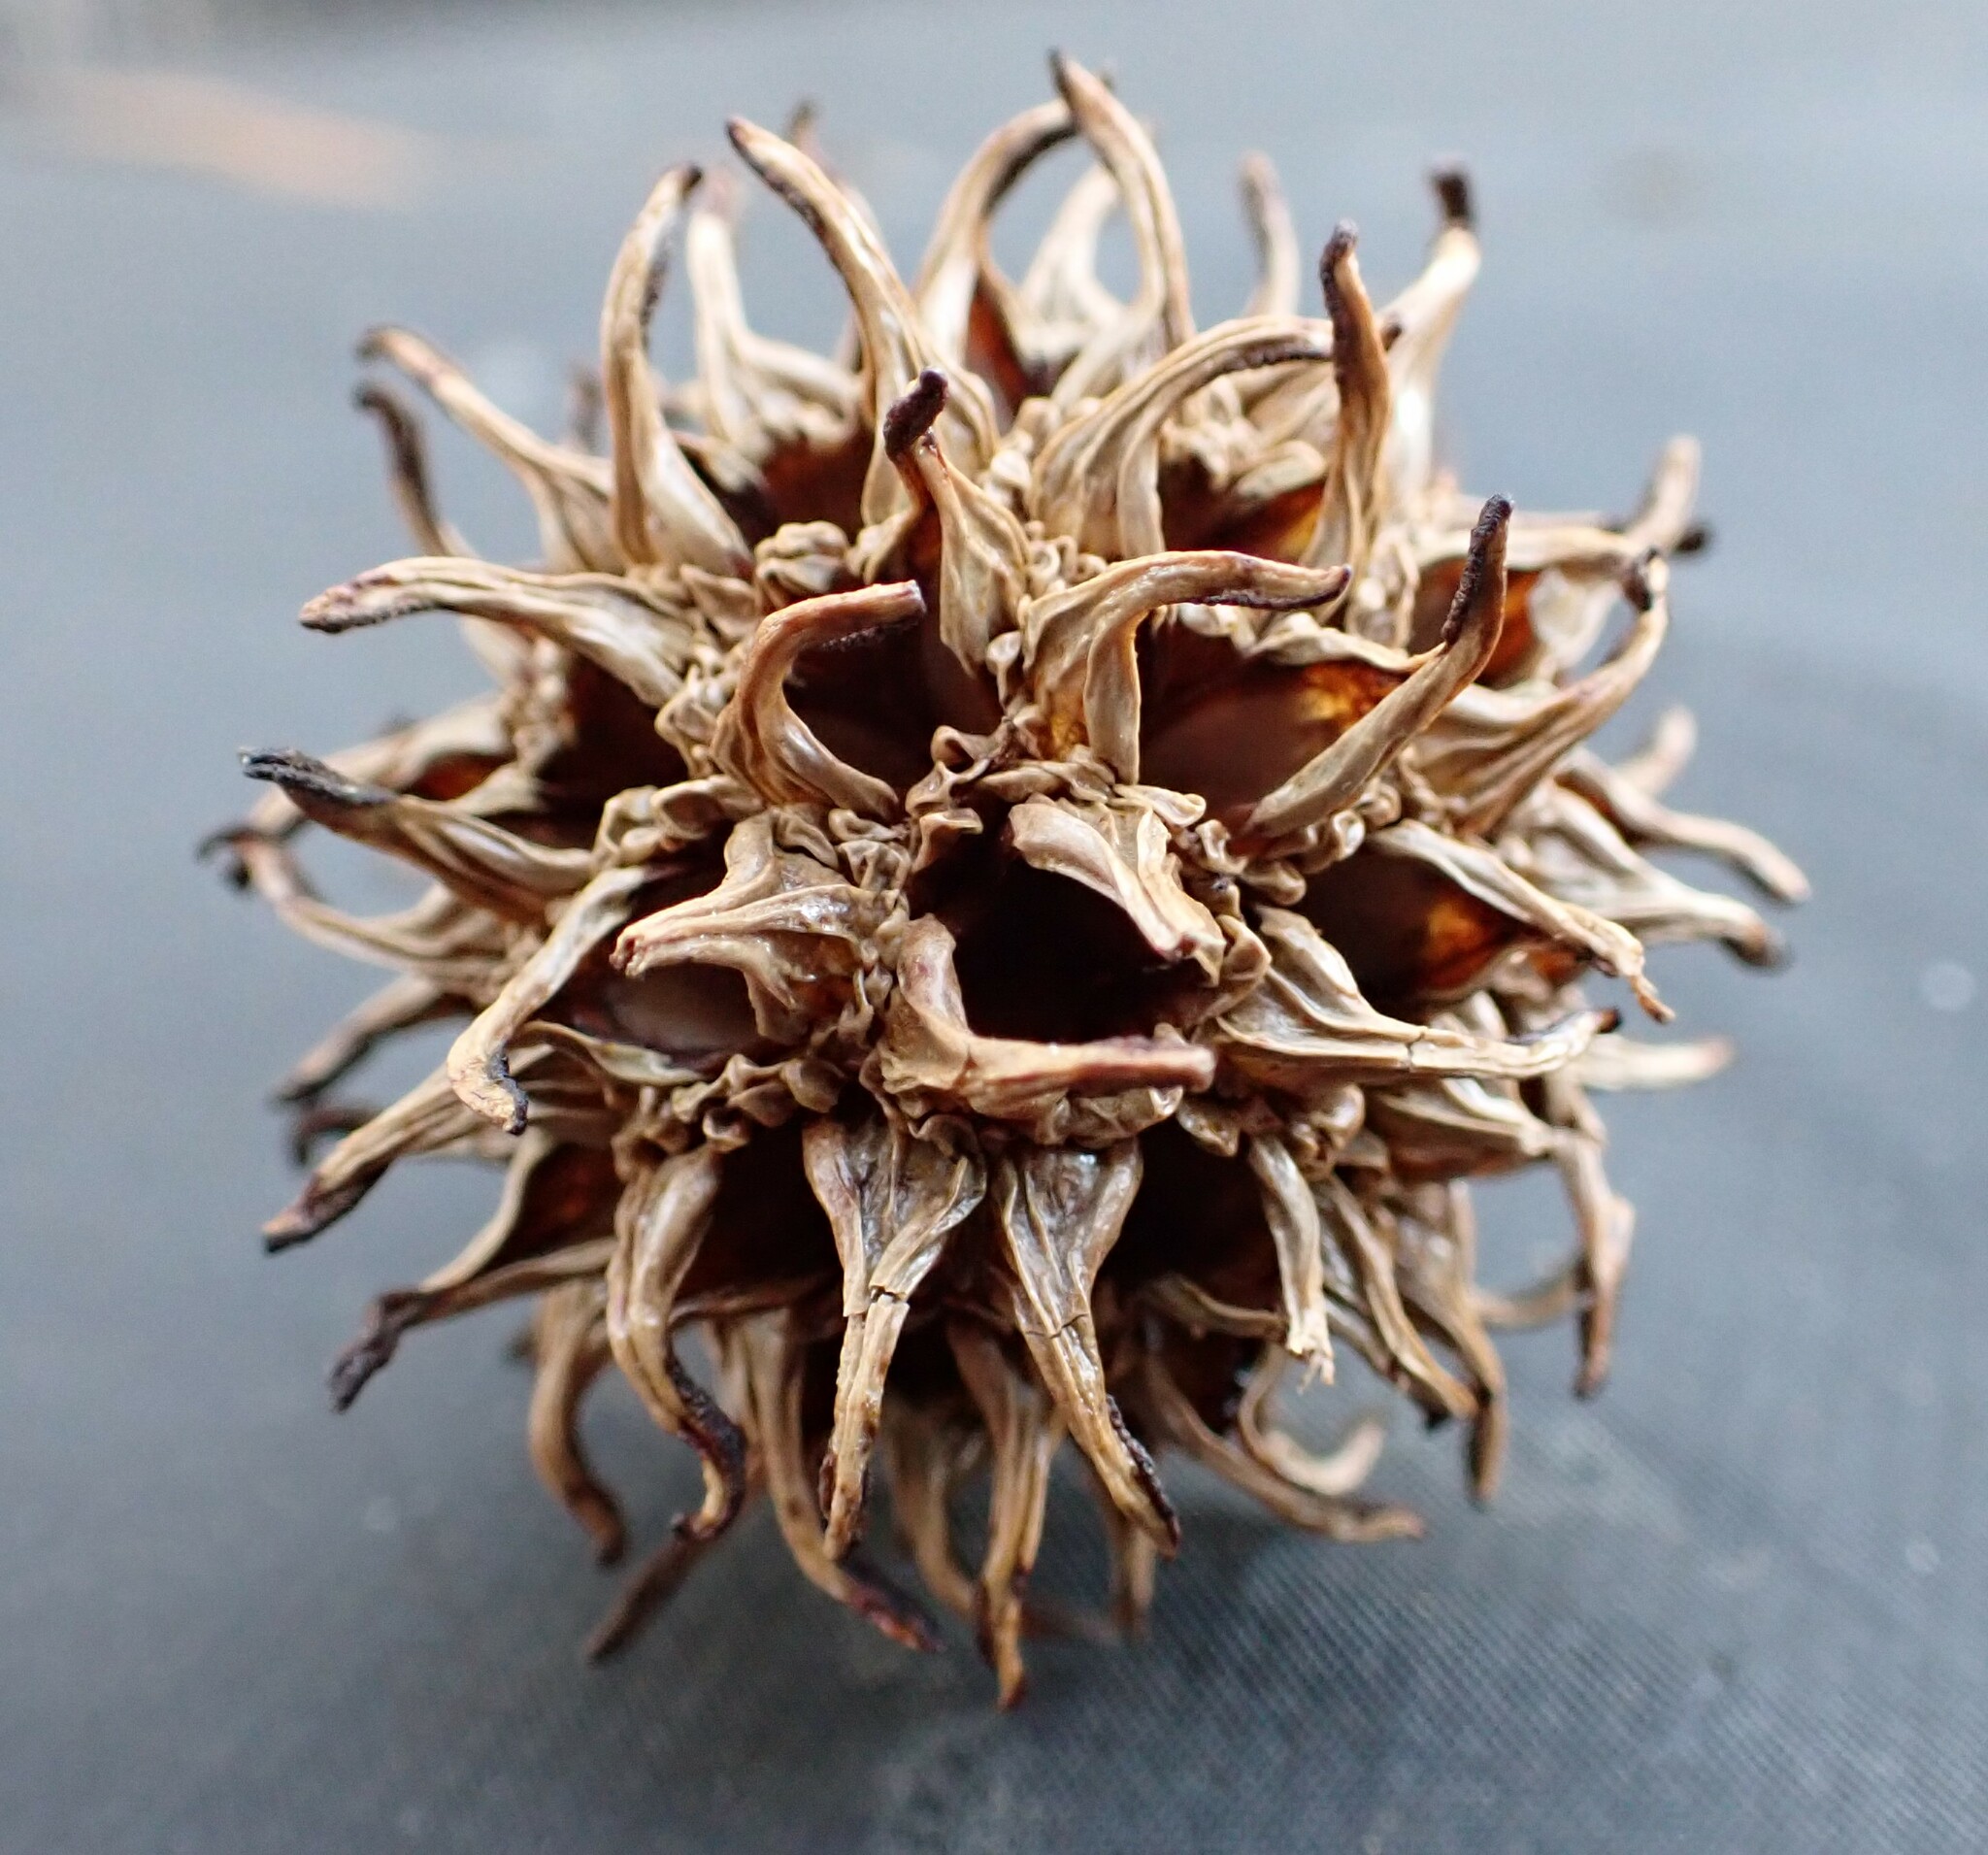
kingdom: Plantae
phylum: Tracheophyta
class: Magnoliopsida
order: Saxifragales
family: Altingiaceae
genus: Liquidambar
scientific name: Liquidambar styraciflua
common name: Sweet gum
